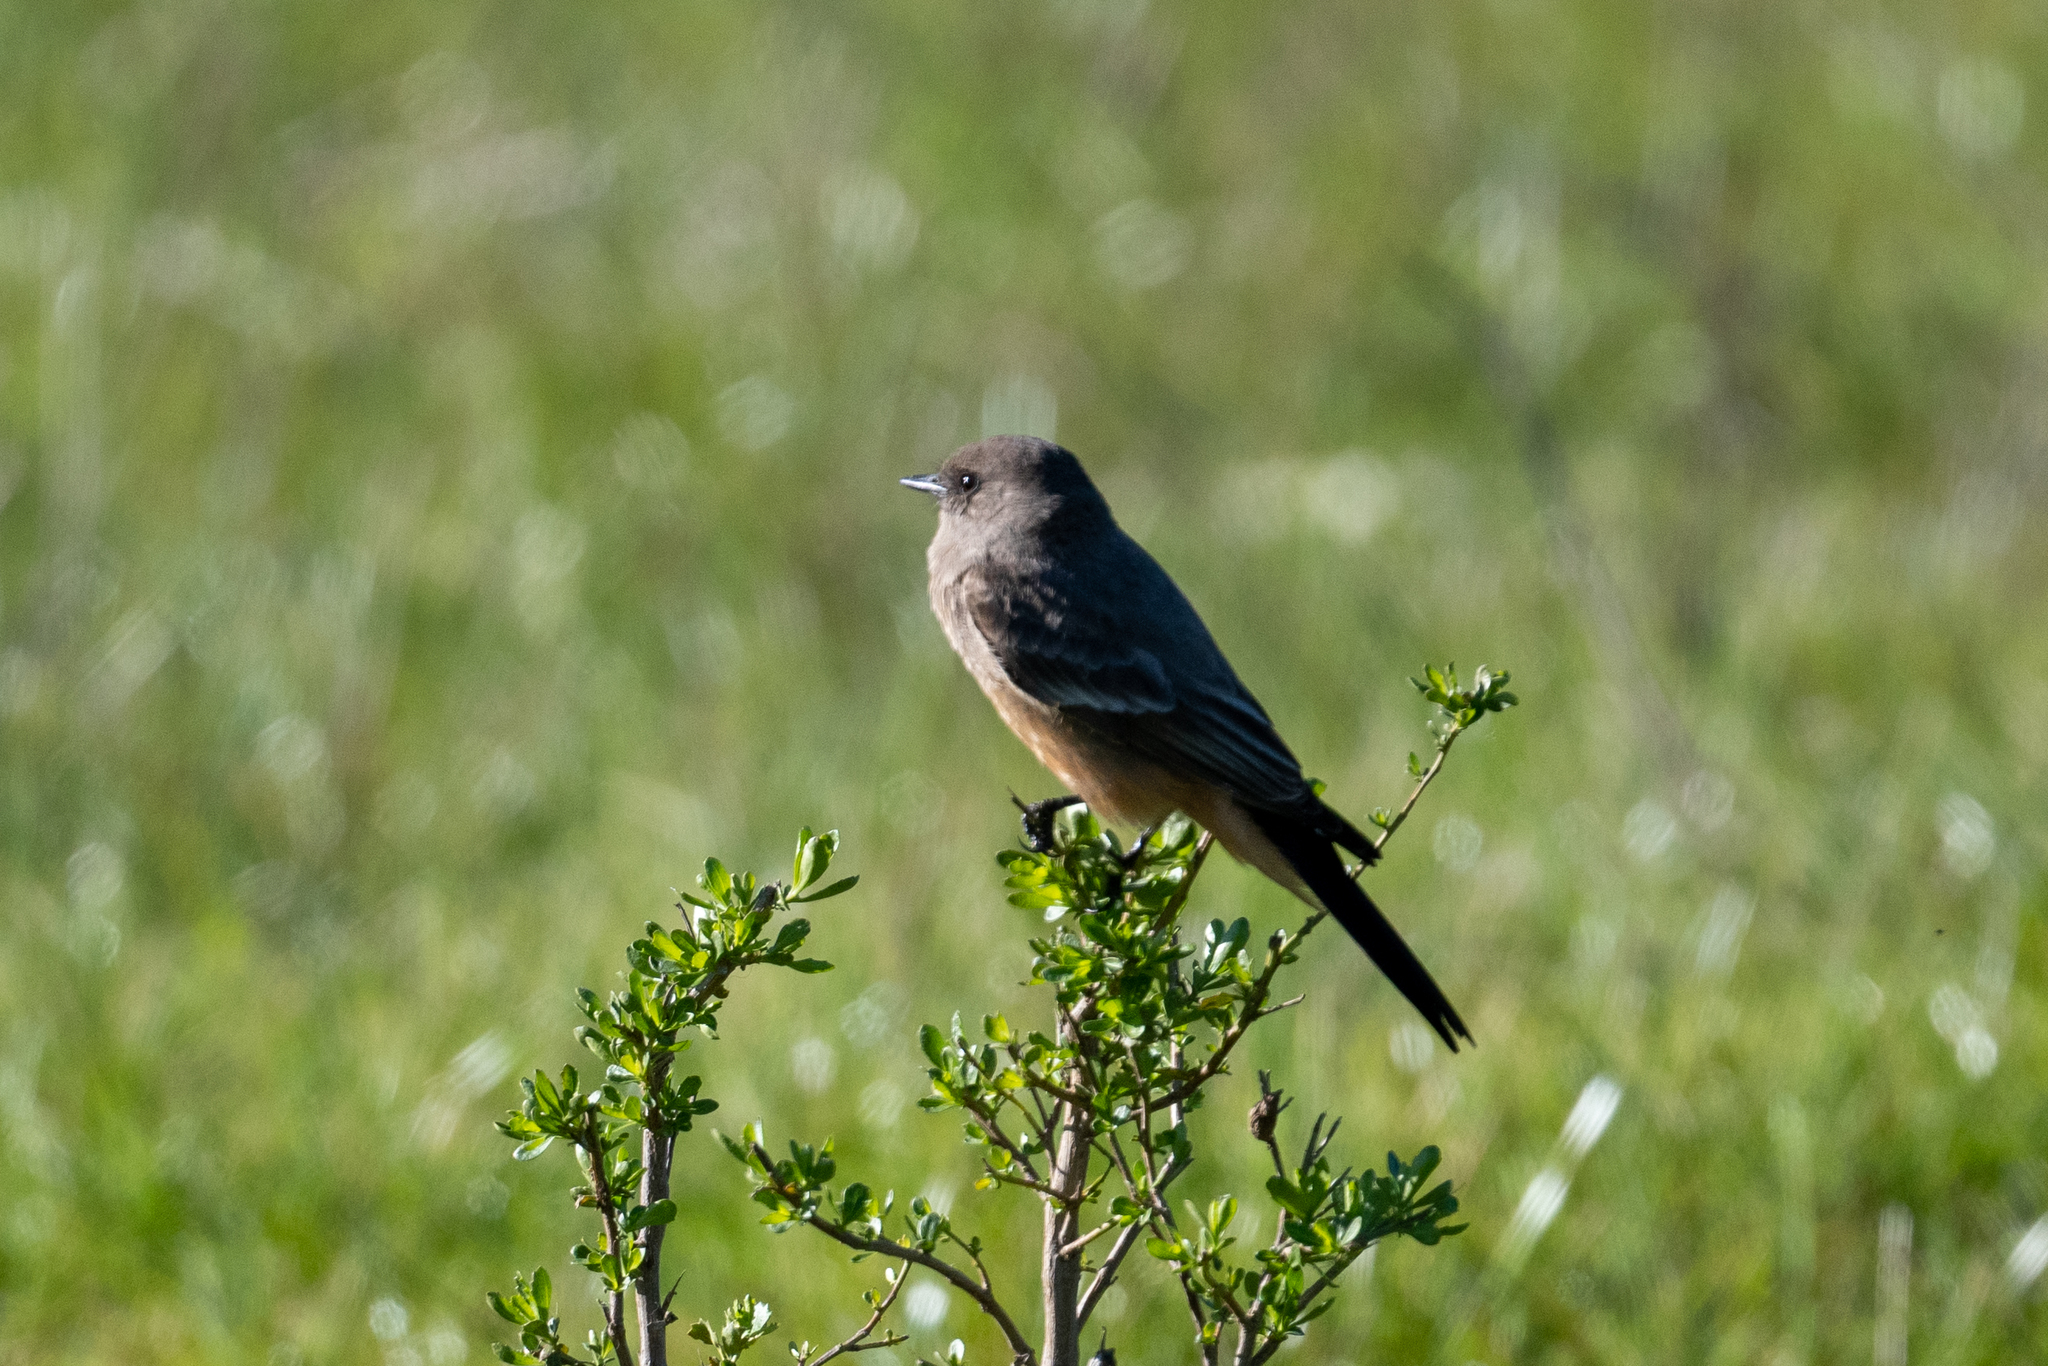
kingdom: Animalia
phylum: Chordata
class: Aves
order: Passeriformes
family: Tyrannidae
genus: Sayornis
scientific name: Sayornis saya
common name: Say's phoebe
